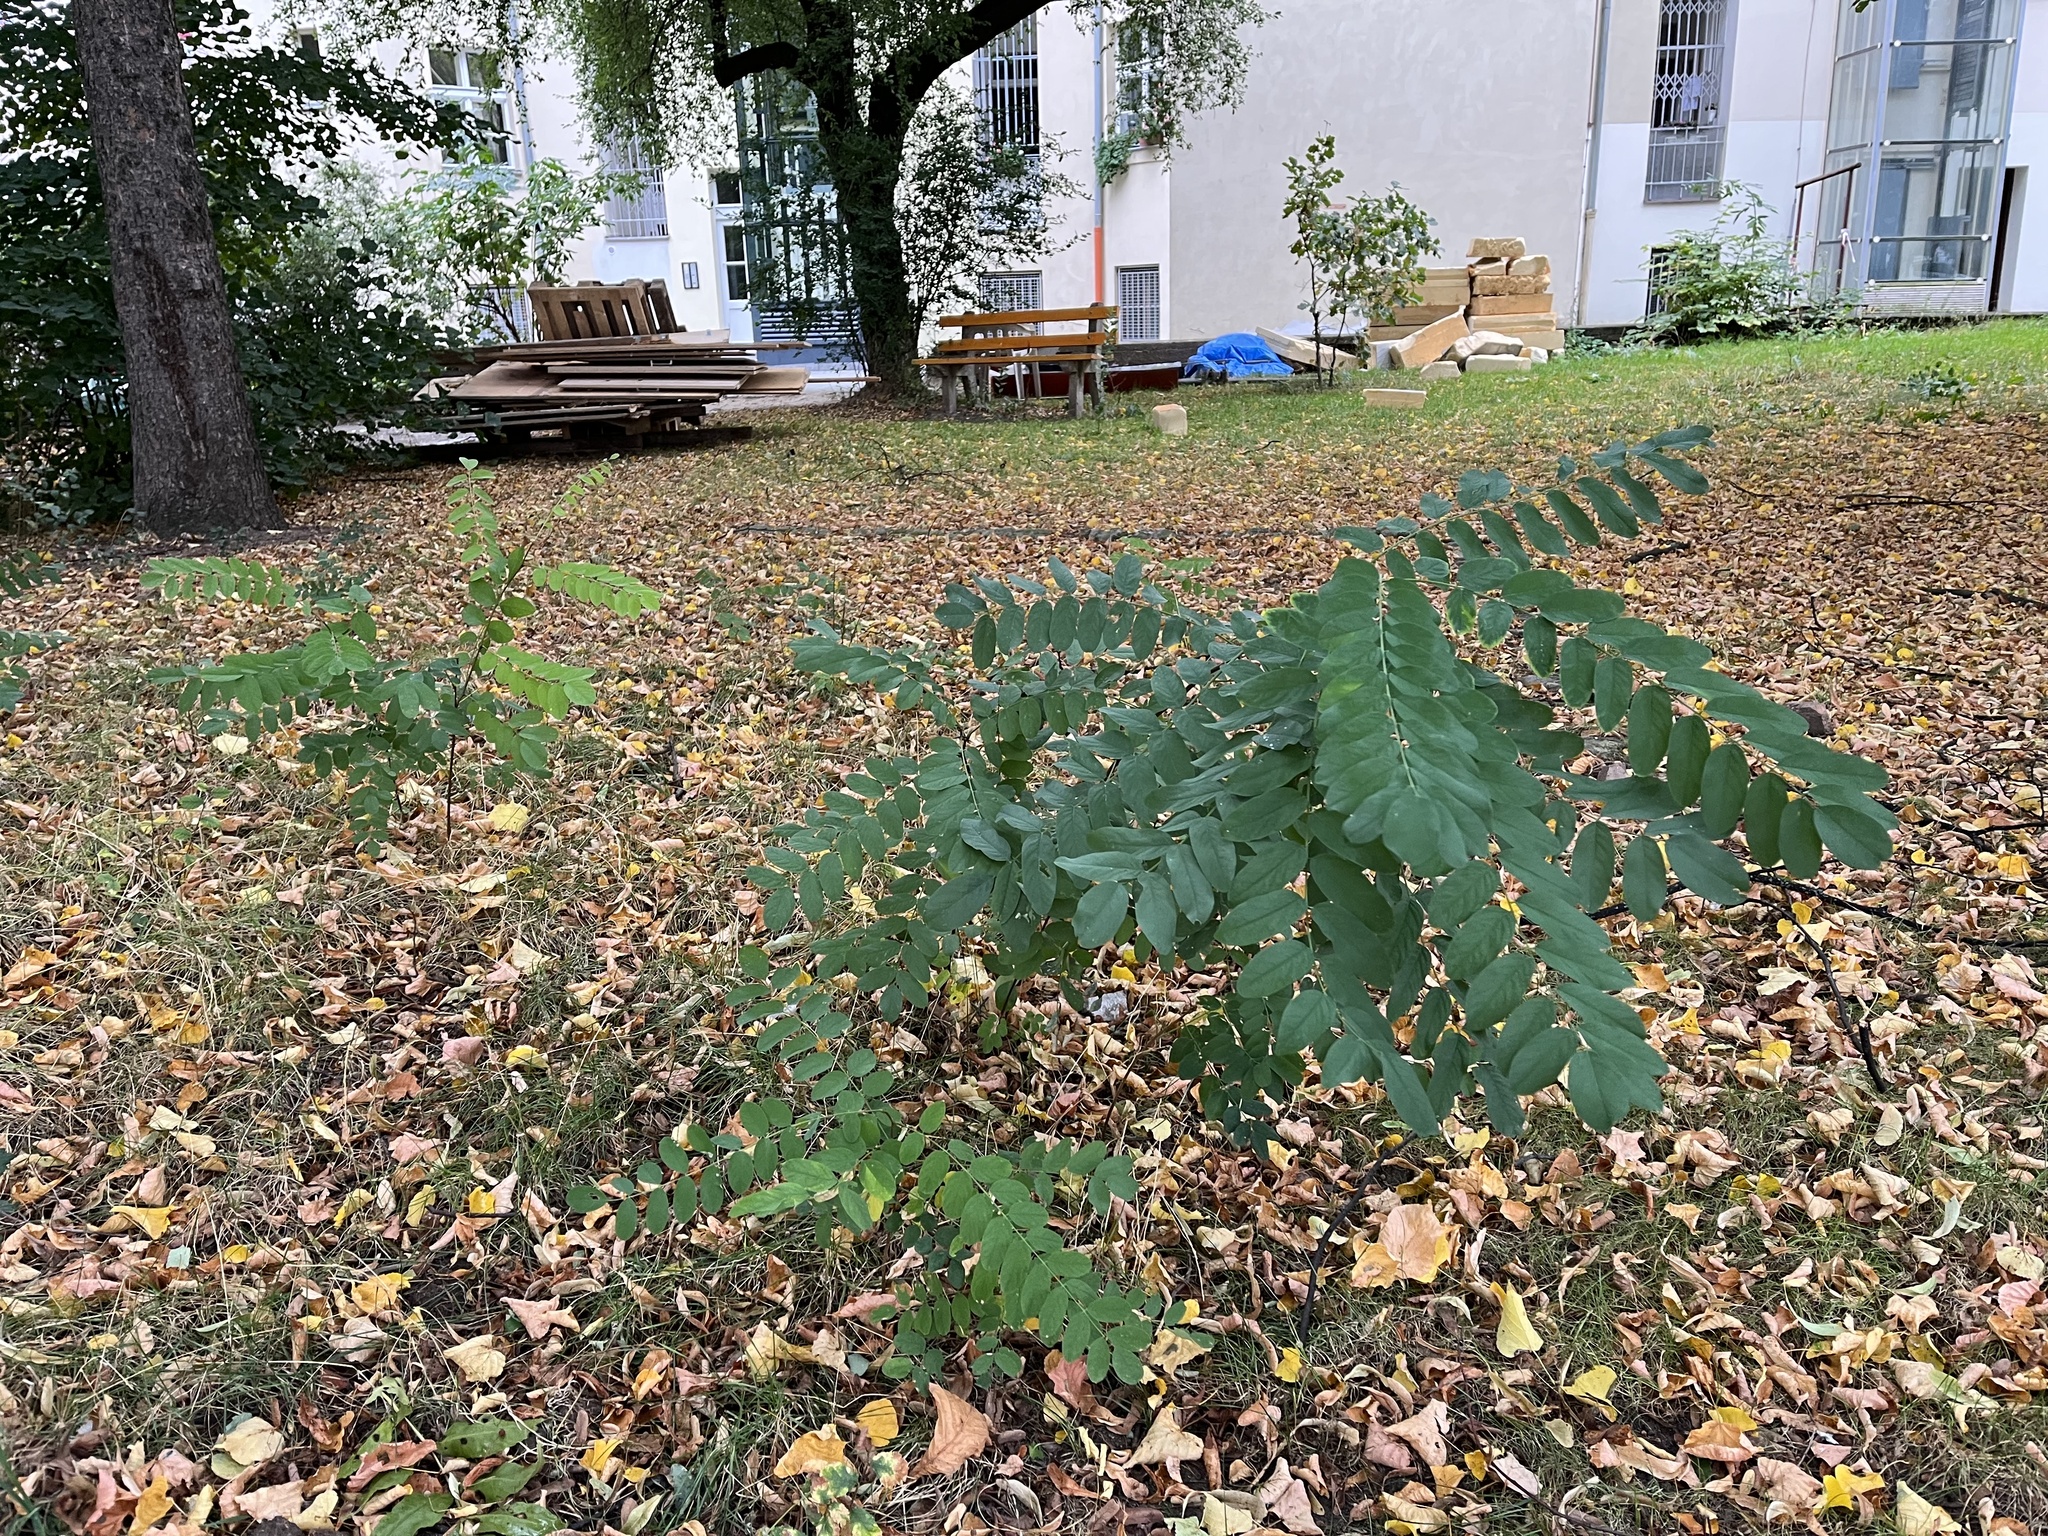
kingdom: Plantae
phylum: Tracheophyta
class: Magnoliopsida
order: Fabales
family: Fabaceae
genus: Robinia
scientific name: Robinia pseudoacacia
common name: Black locust
